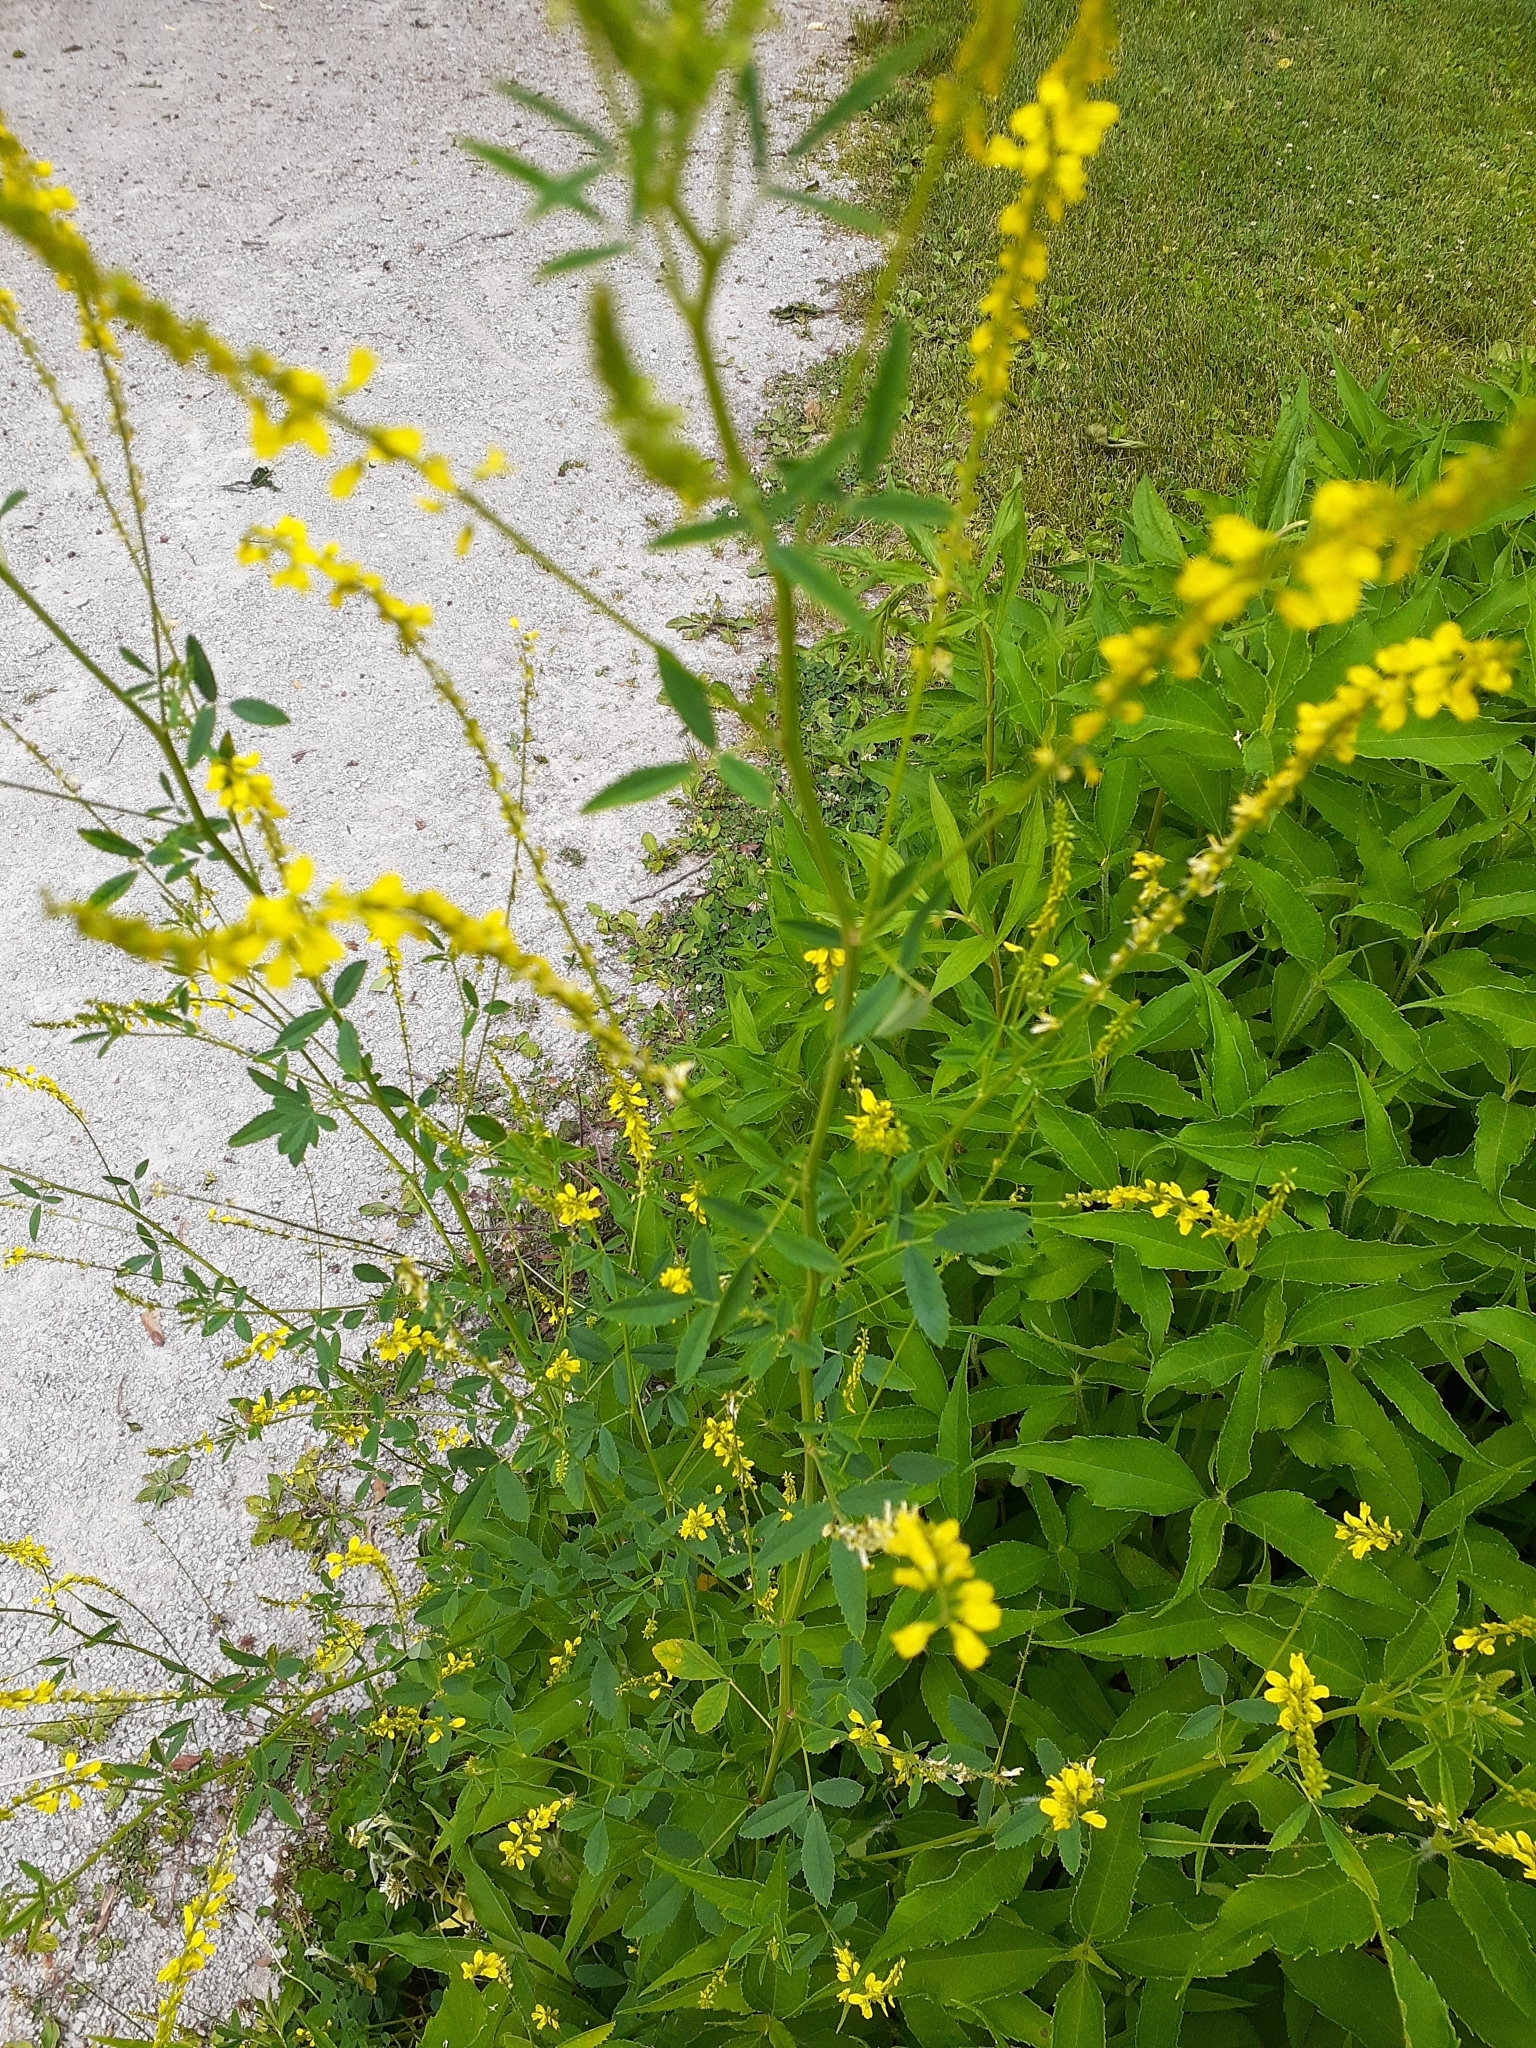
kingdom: Plantae
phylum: Tracheophyta
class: Magnoliopsida
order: Fabales
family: Fabaceae
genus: Melilotus
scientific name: Melilotus officinalis
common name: Sweetclover
